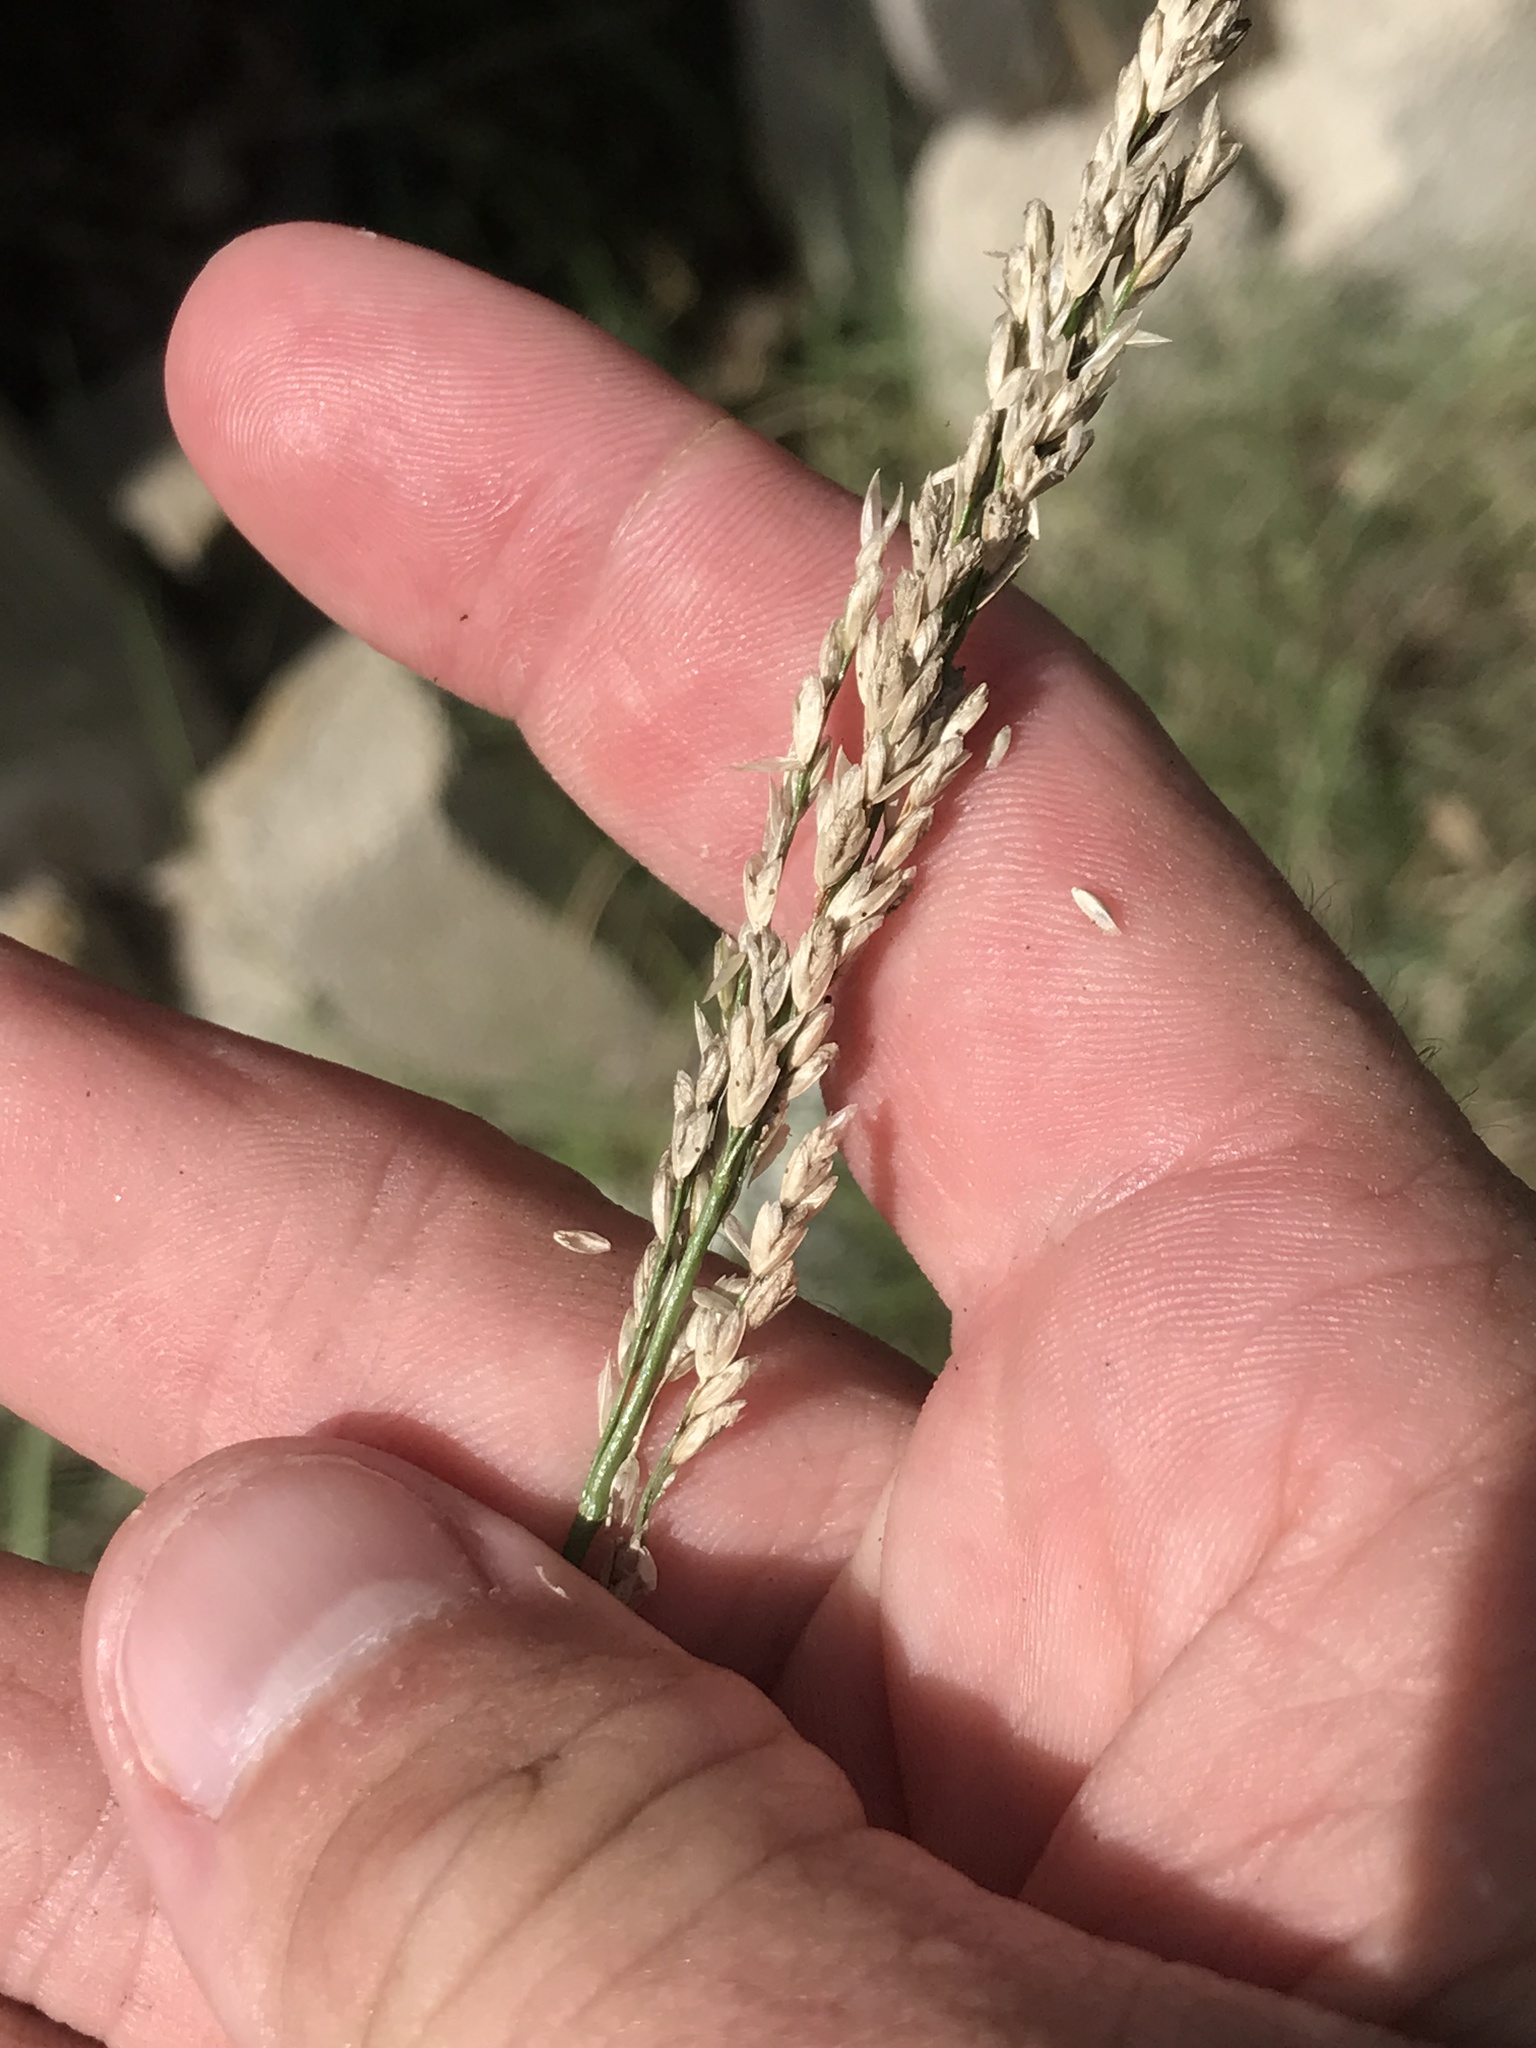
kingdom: Plantae
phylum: Tracheophyta
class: Liliopsida
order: Poales
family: Poaceae
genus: Tridens
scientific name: Tridens albescens
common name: White tridens
